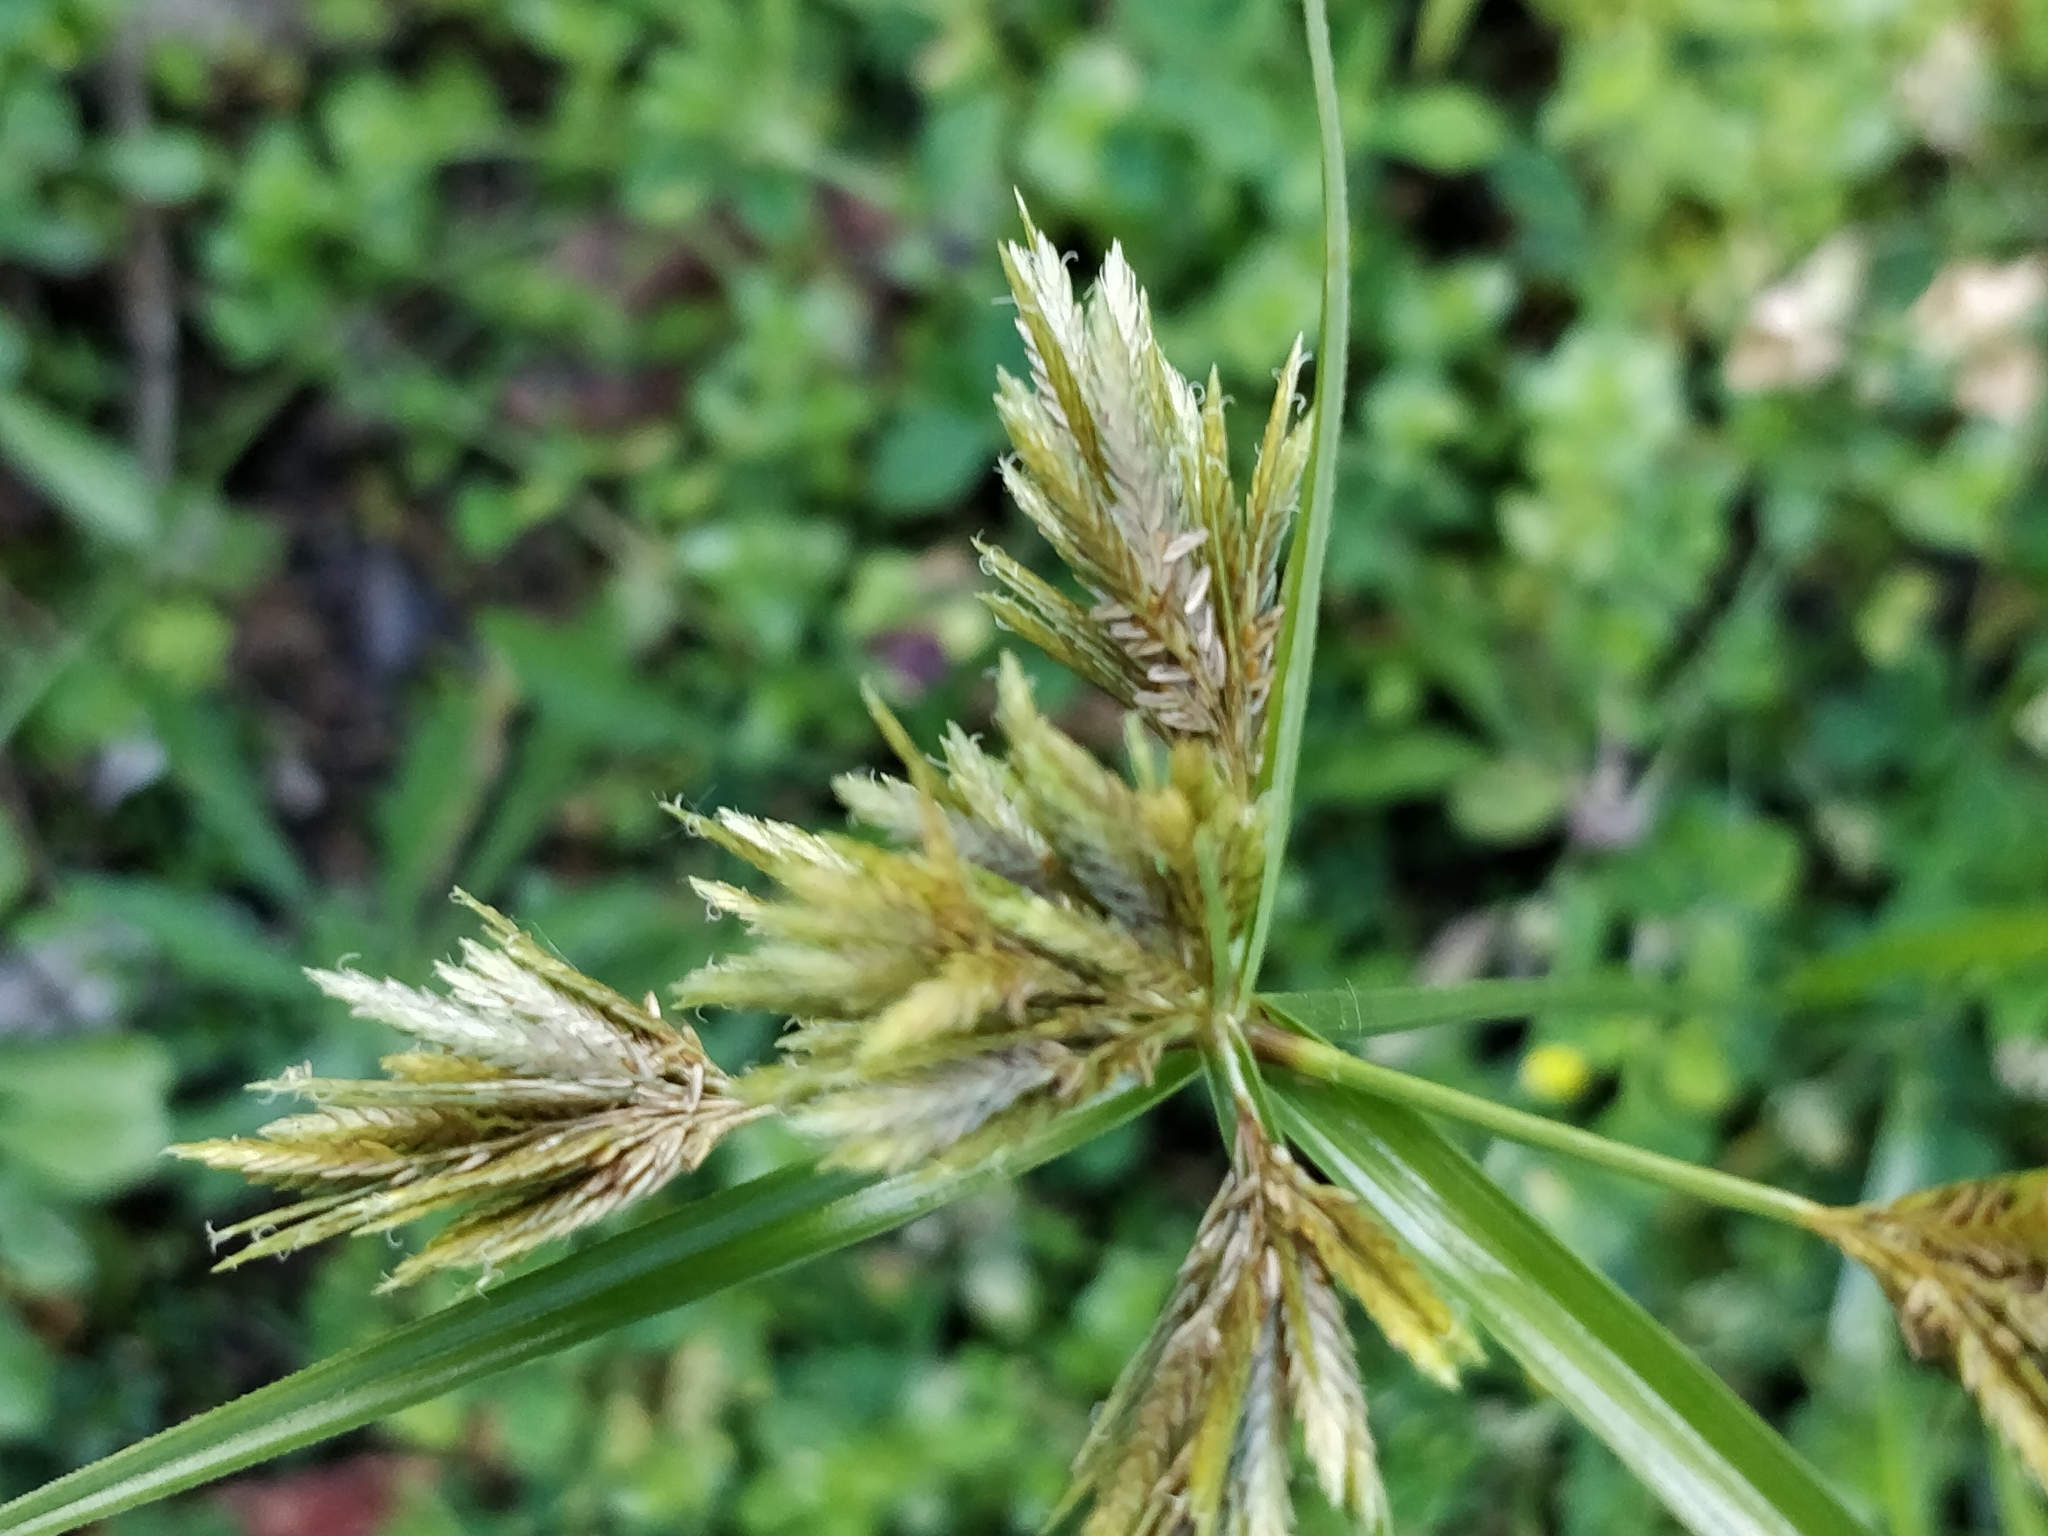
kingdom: Plantae
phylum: Tracheophyta
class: Liliopsida
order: Poales
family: Cyperaceae
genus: Cyperus
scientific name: Cyperus polystachyos
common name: Bunchy flat sedge
